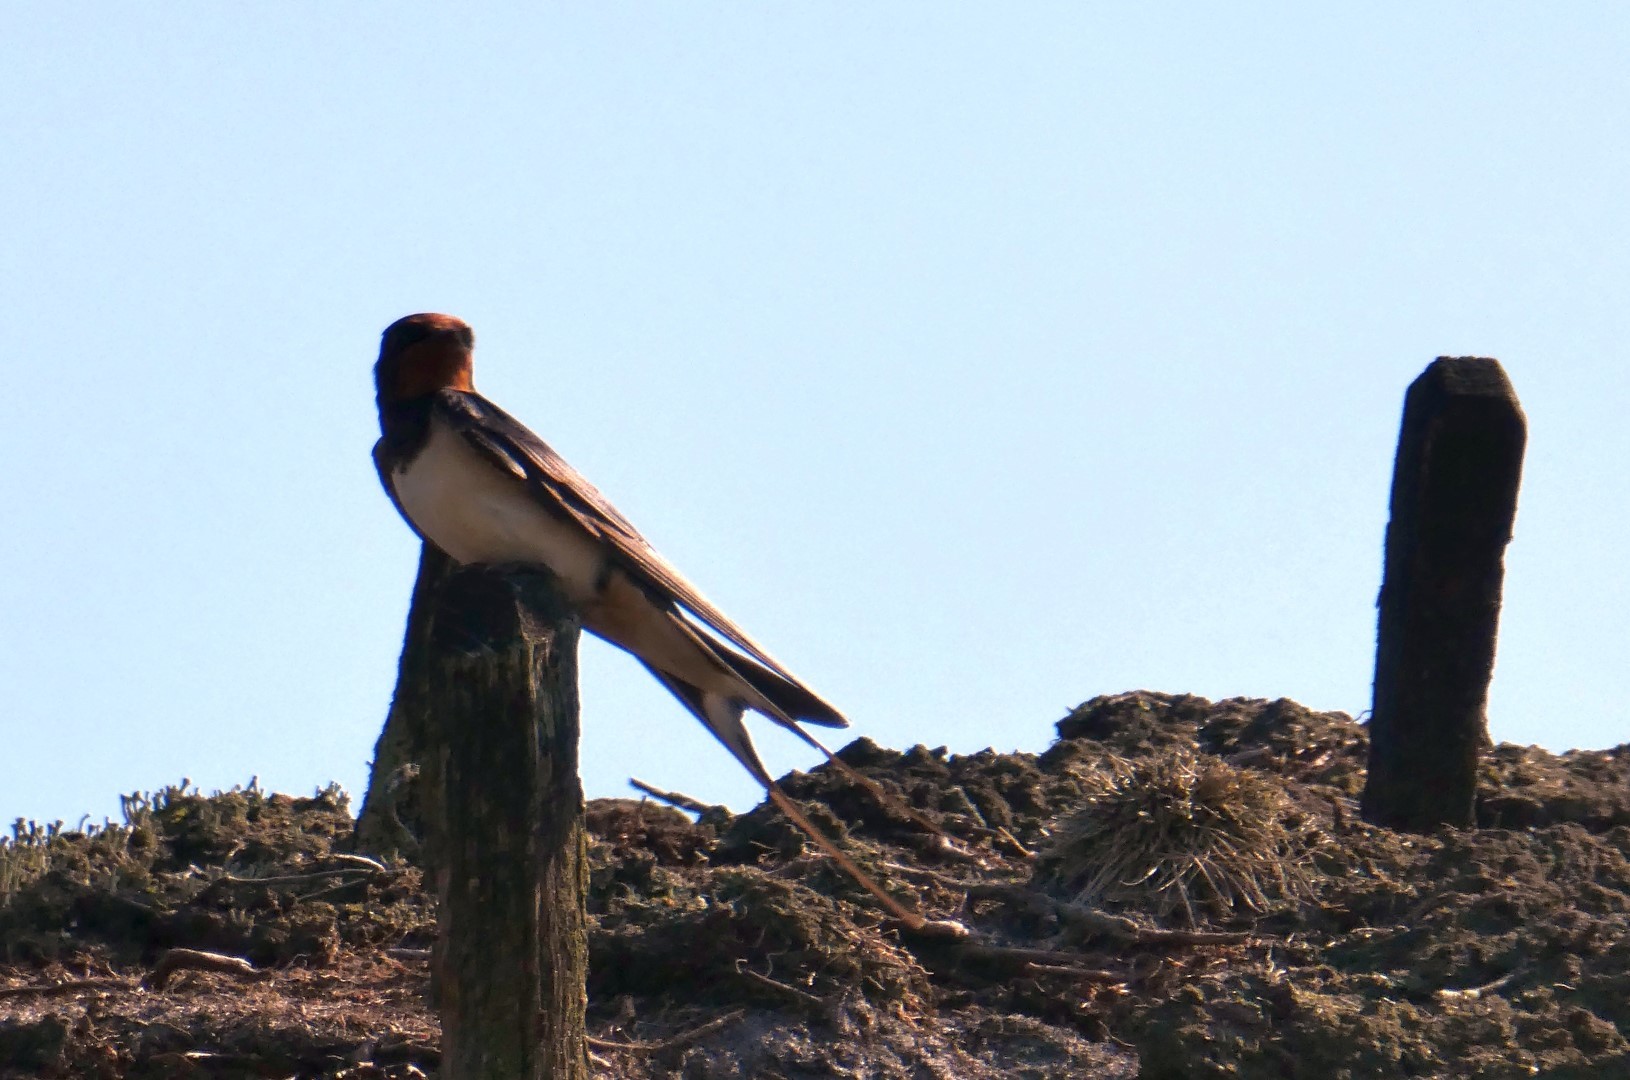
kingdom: Animalia
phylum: Chordata
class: Aves
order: Passeriformes
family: Hirundinidae
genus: Hirundo
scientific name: Hirundo rustica
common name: Barn swallow
